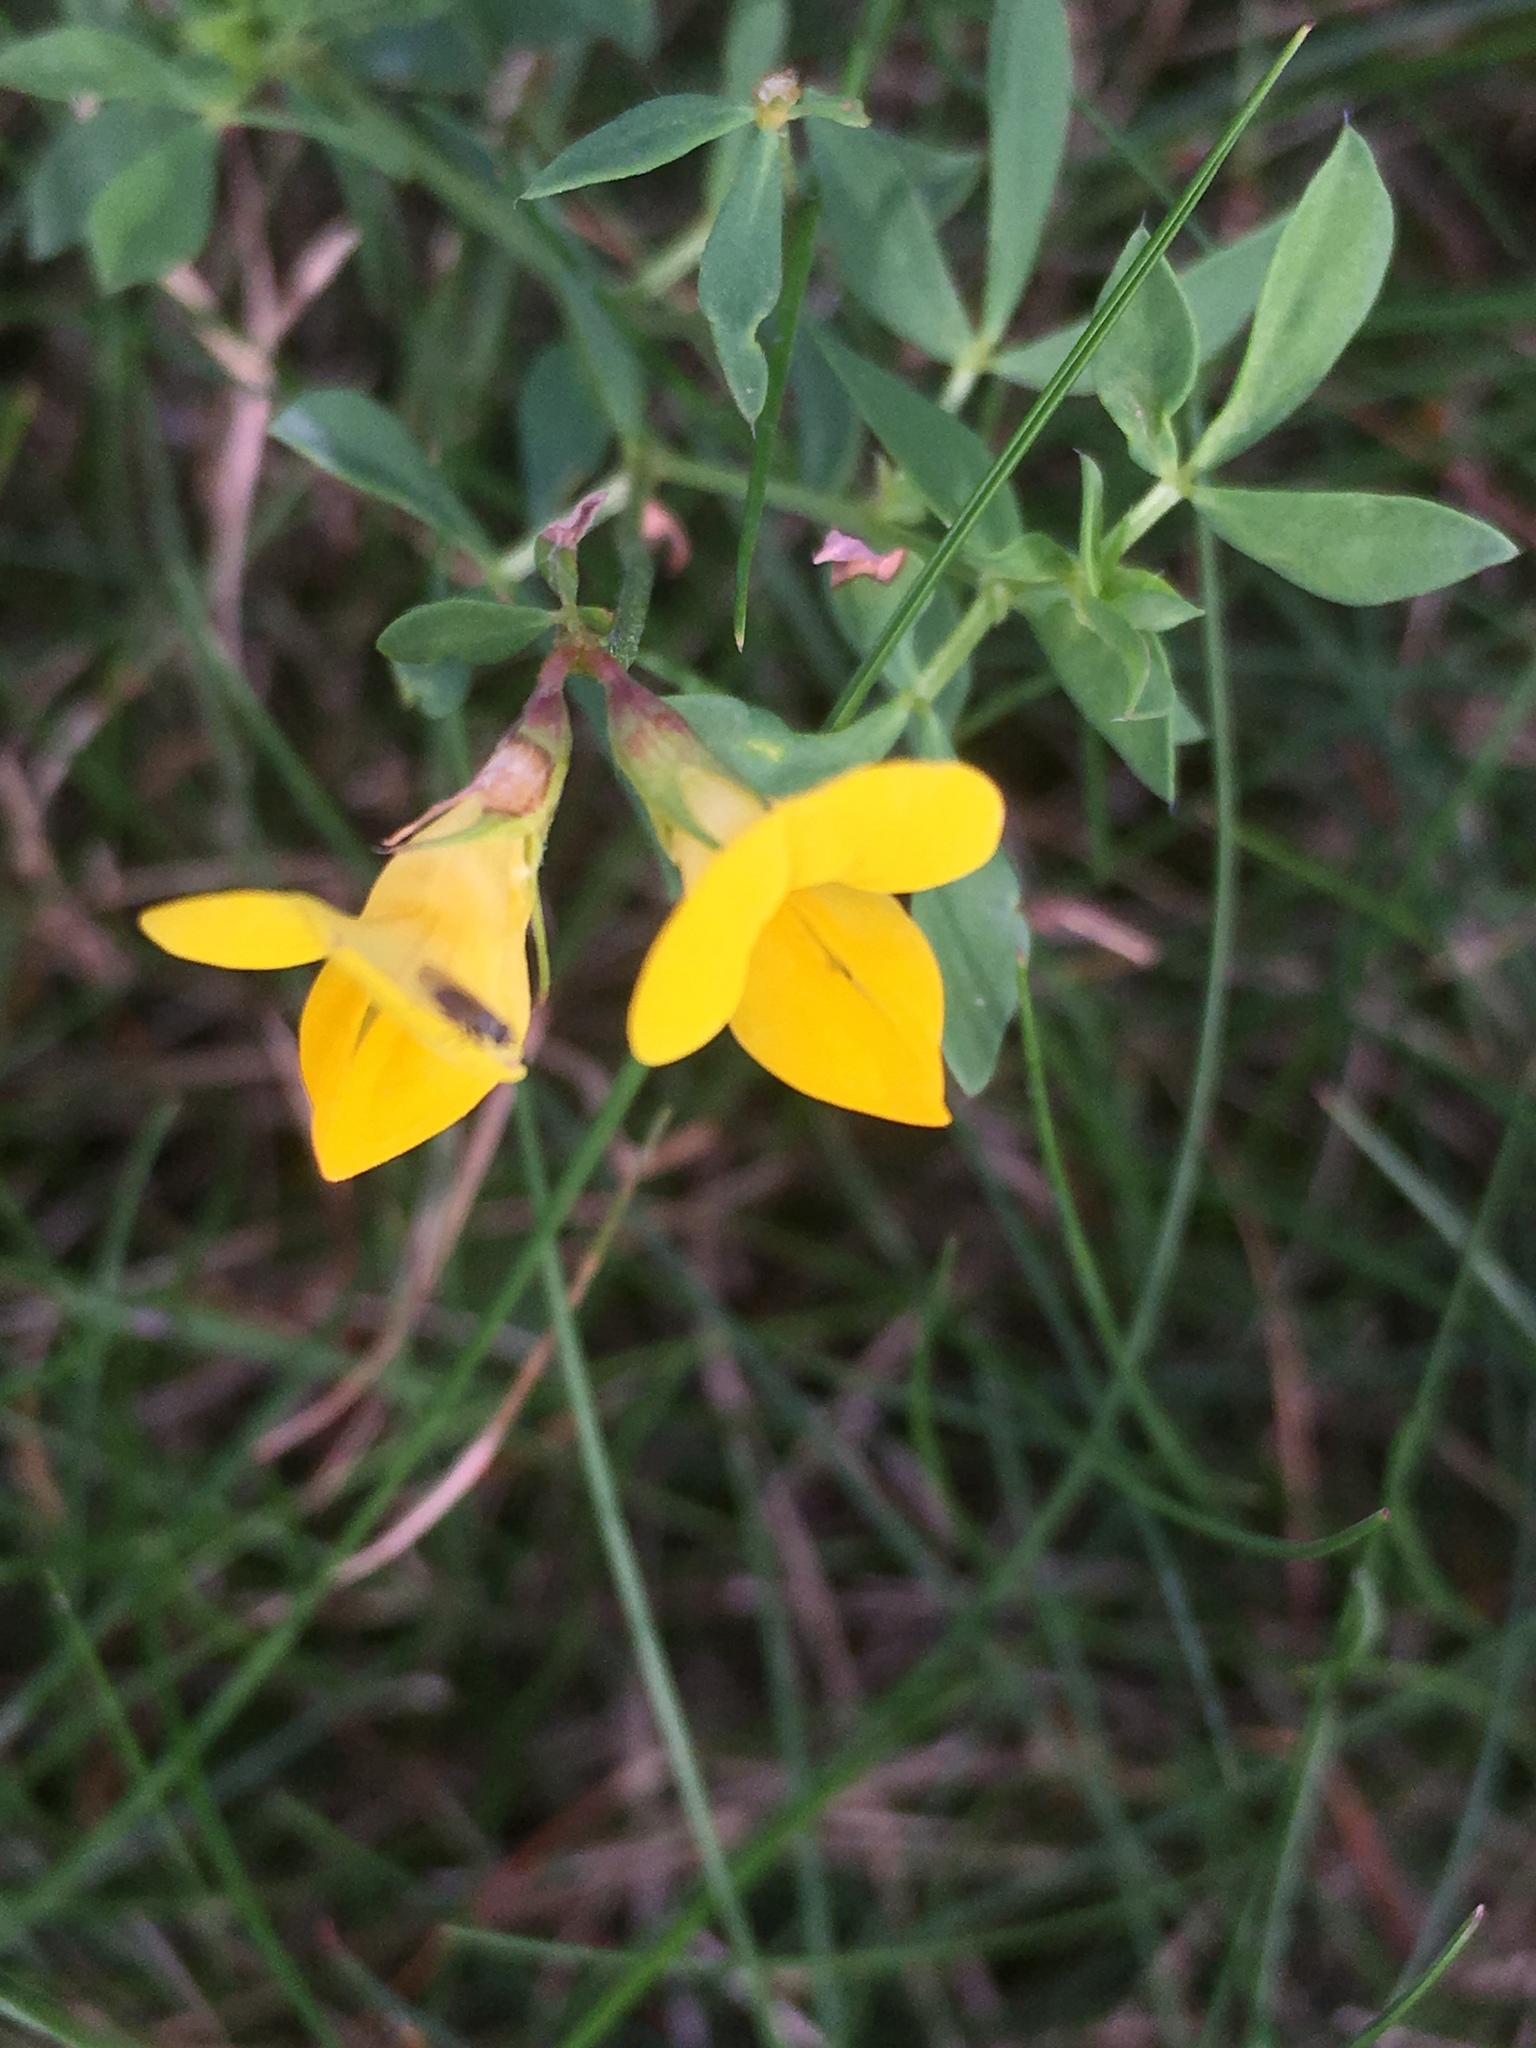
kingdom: Plantae
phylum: Tracheophyta
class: Magnoliopsida
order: Fabales
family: Fabaceae
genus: Lotus
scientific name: Lotus corniculatus
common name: Common bird's-foot-trefoil
